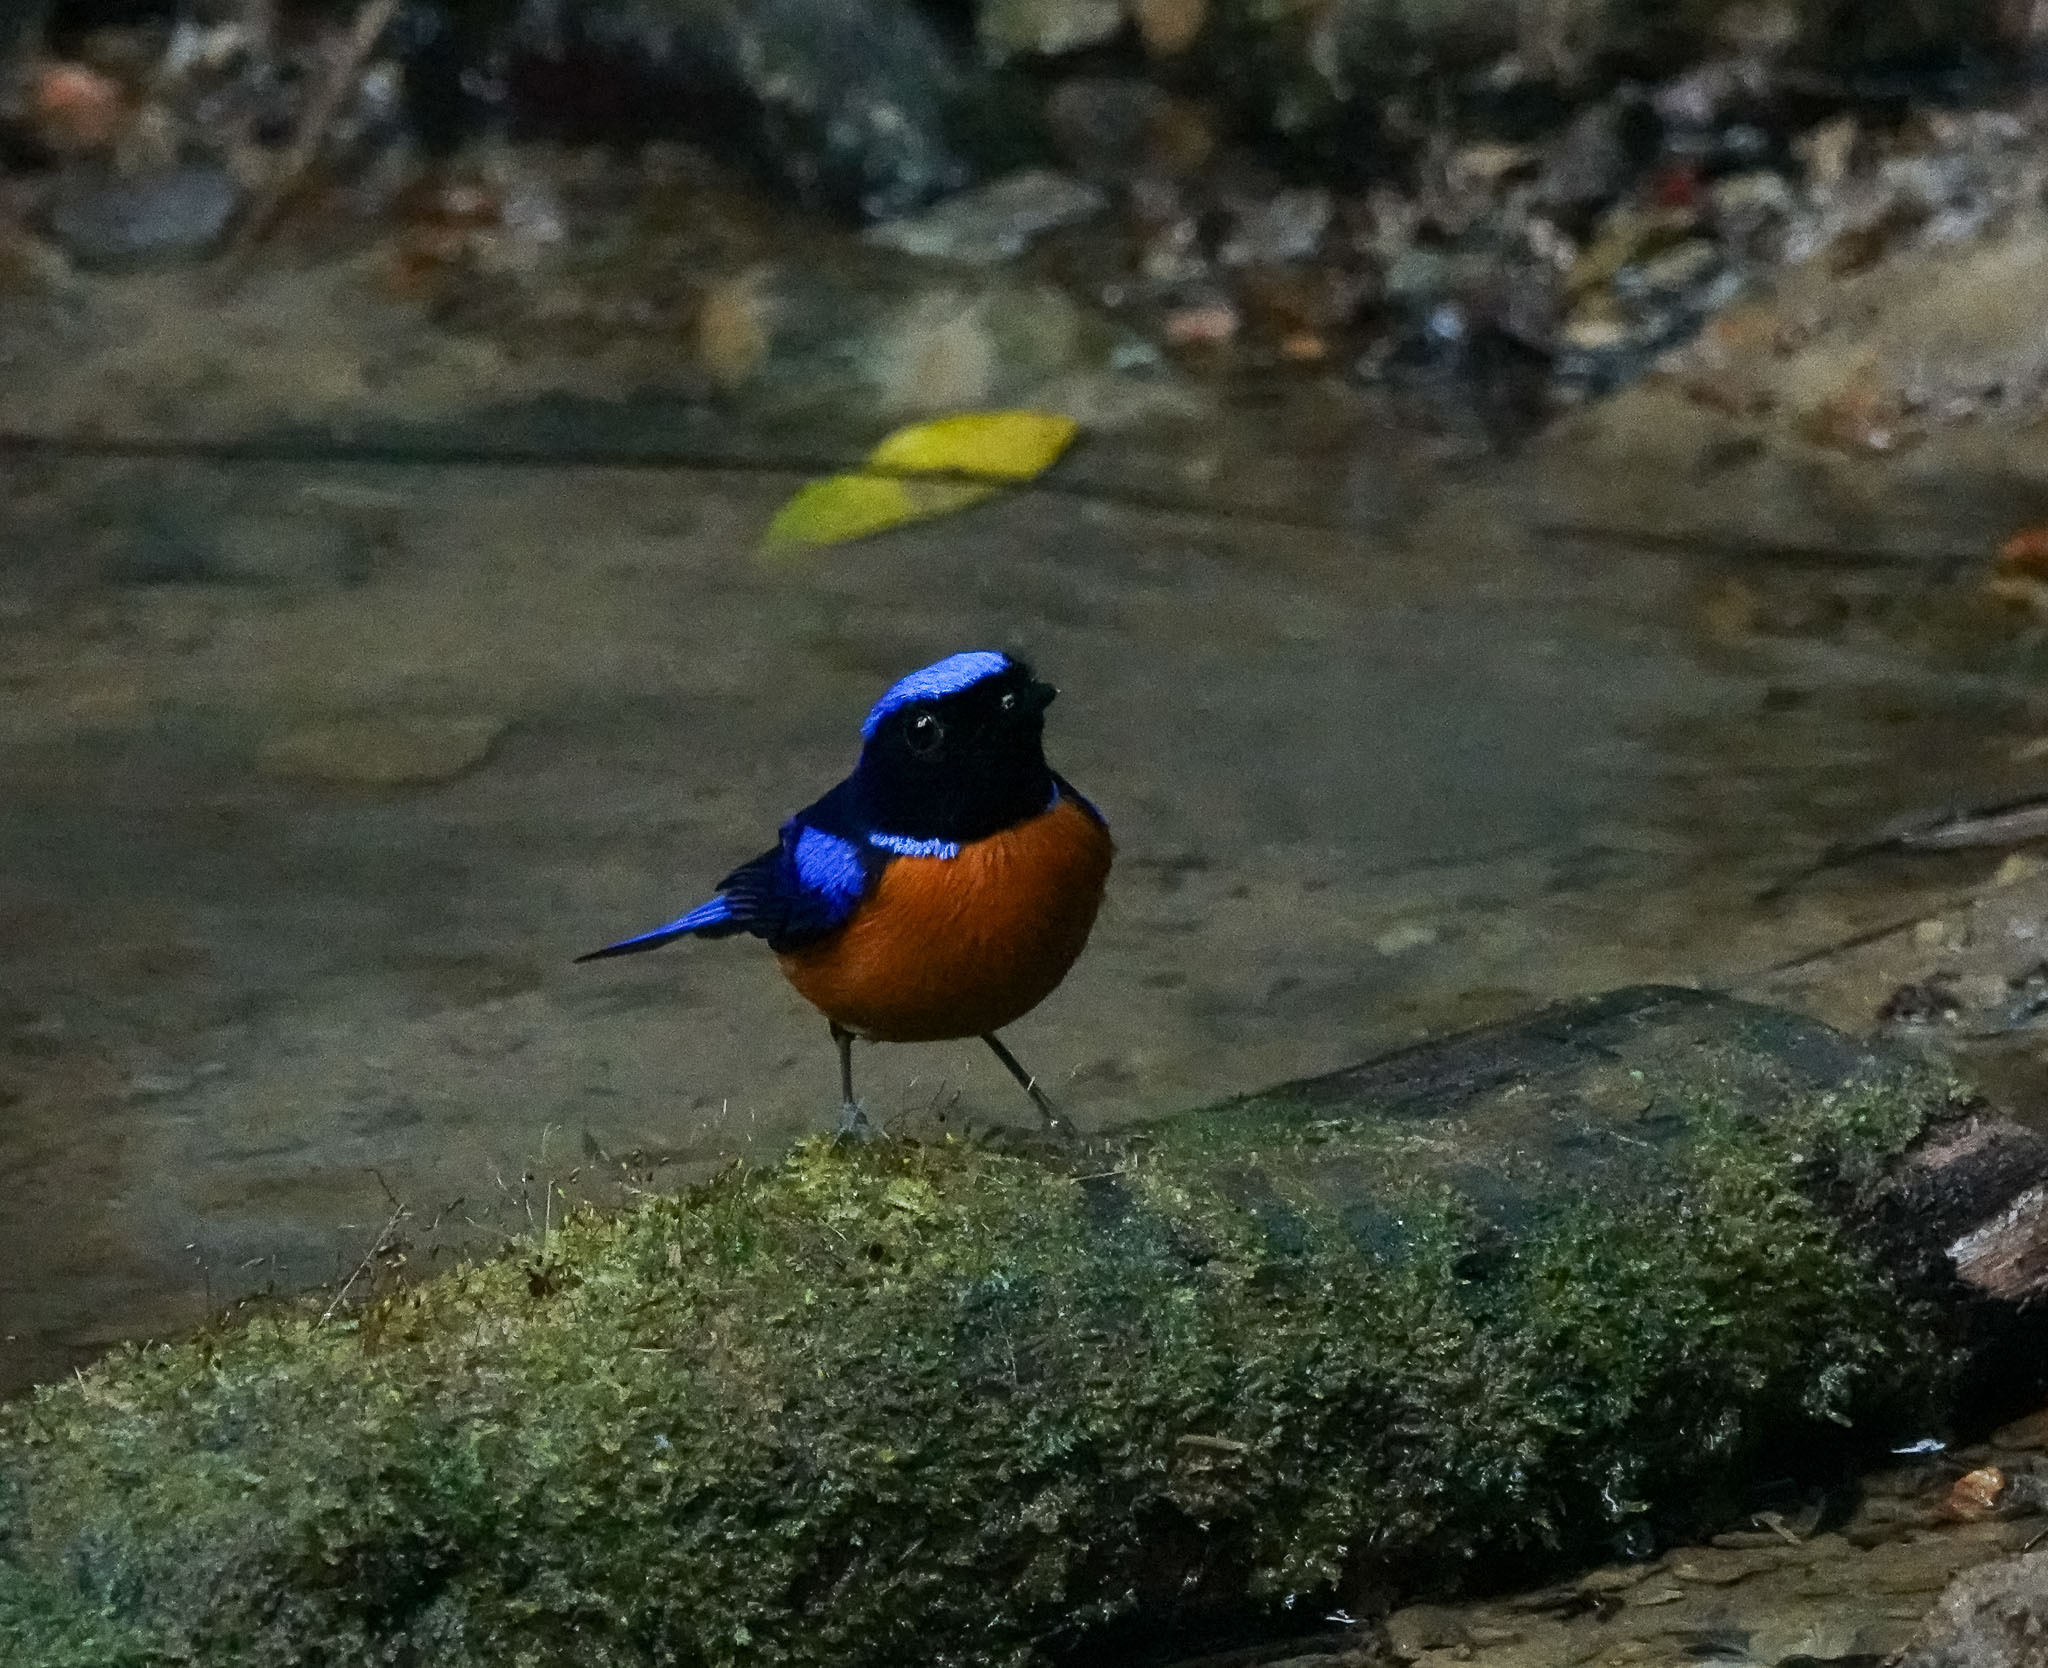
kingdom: Animalia
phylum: Chordata
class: Aves
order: Passeriformes
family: Muscicapidae
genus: Niltava
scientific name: Niltava sundara
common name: Rufous-bellied niltava
